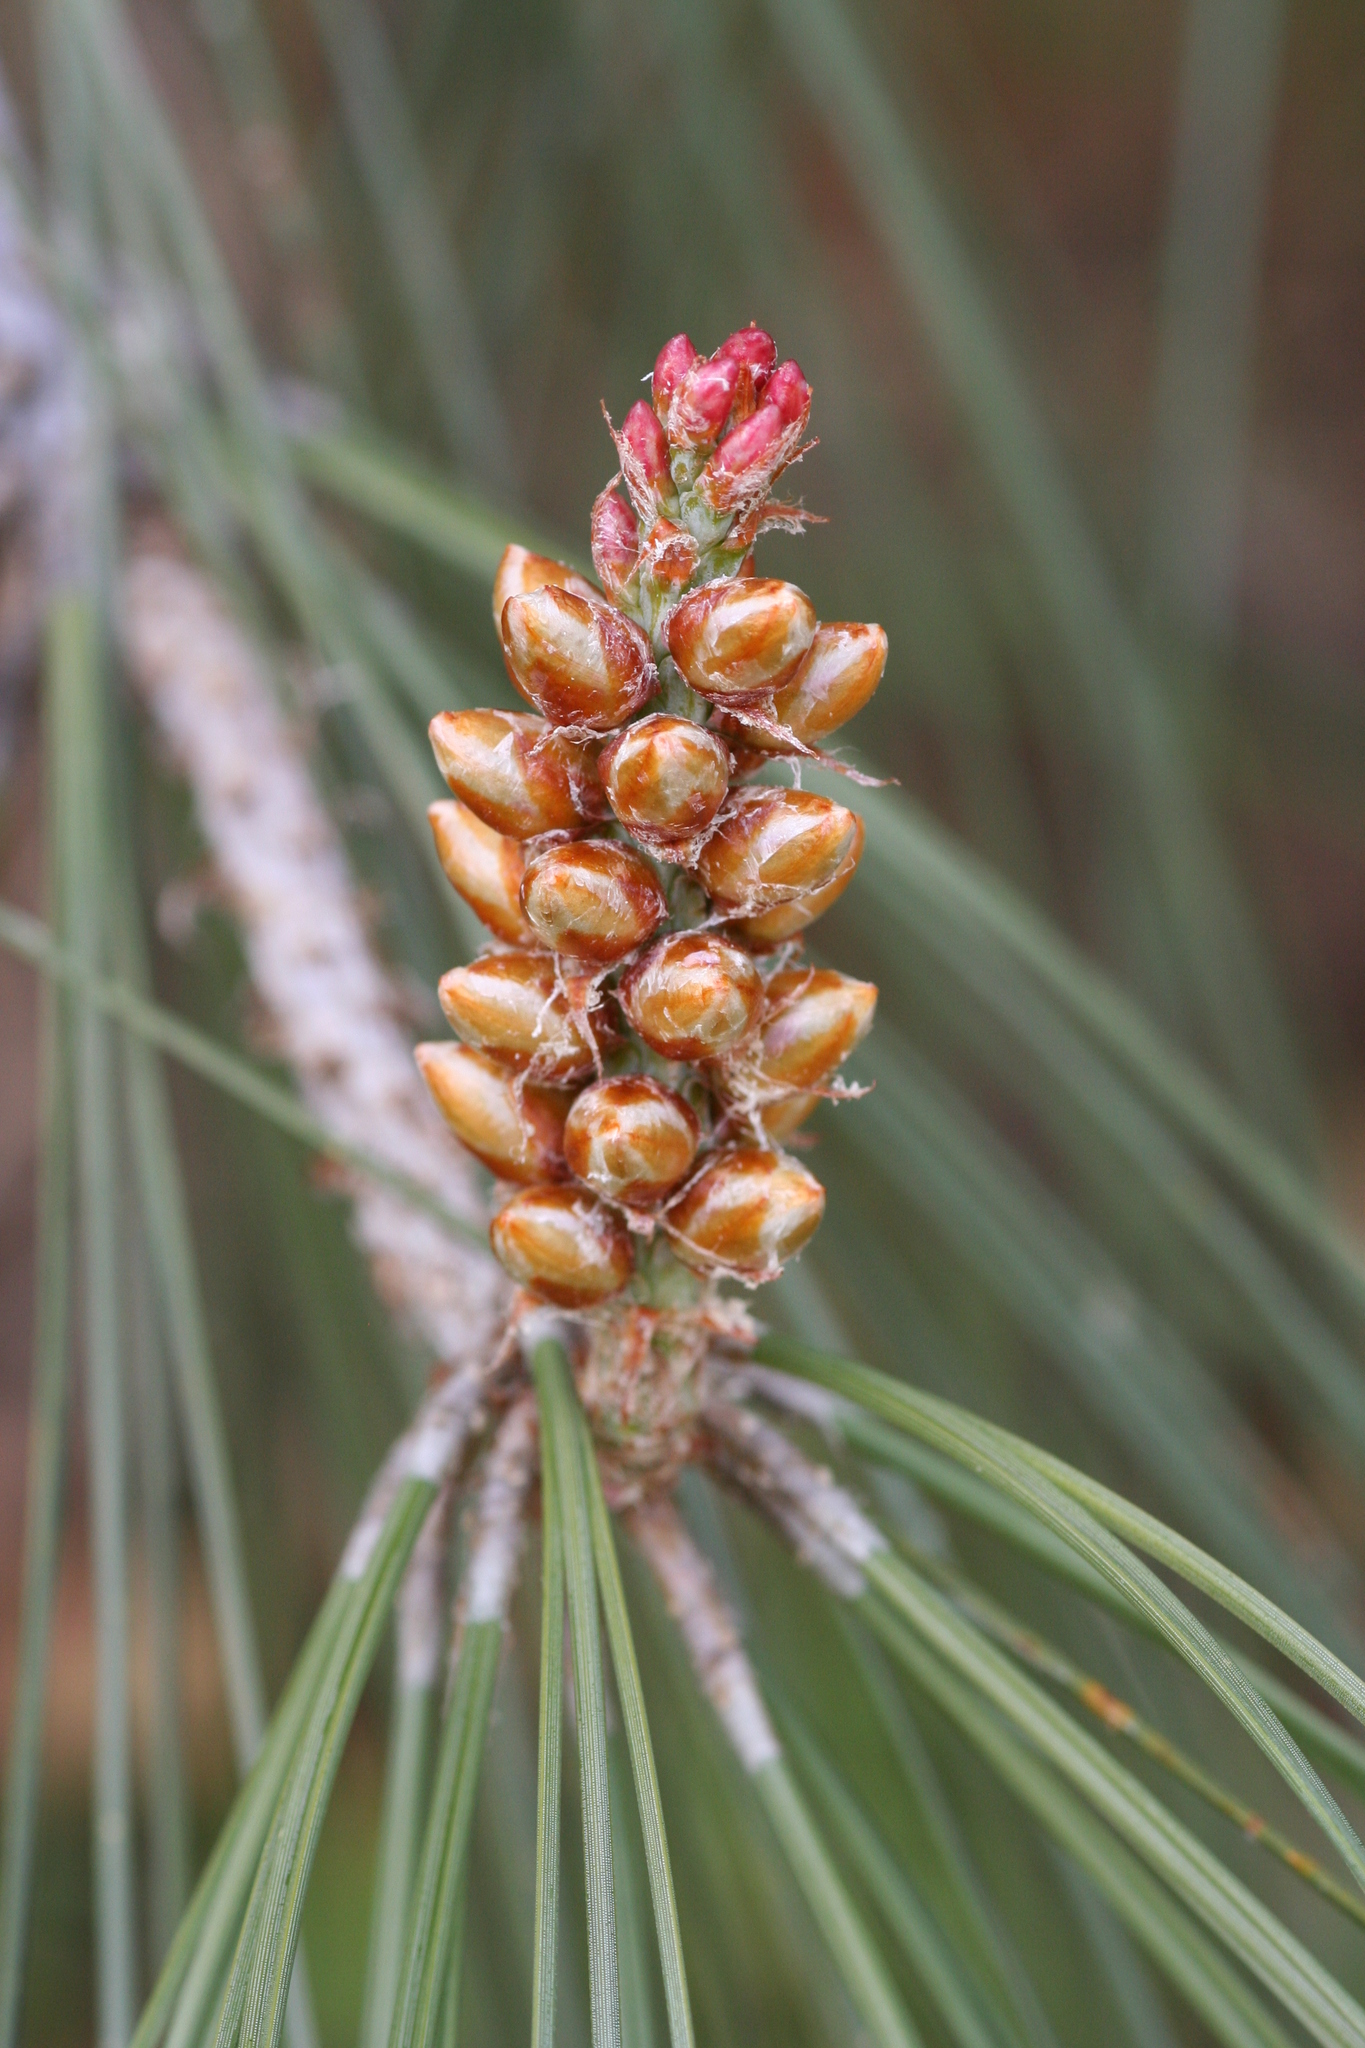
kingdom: Plantae
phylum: Tracheophyta
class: Pinopsida
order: Pinales
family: Pinaceae
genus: Pinus
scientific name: Pinus sabiniana
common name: Bull pine
